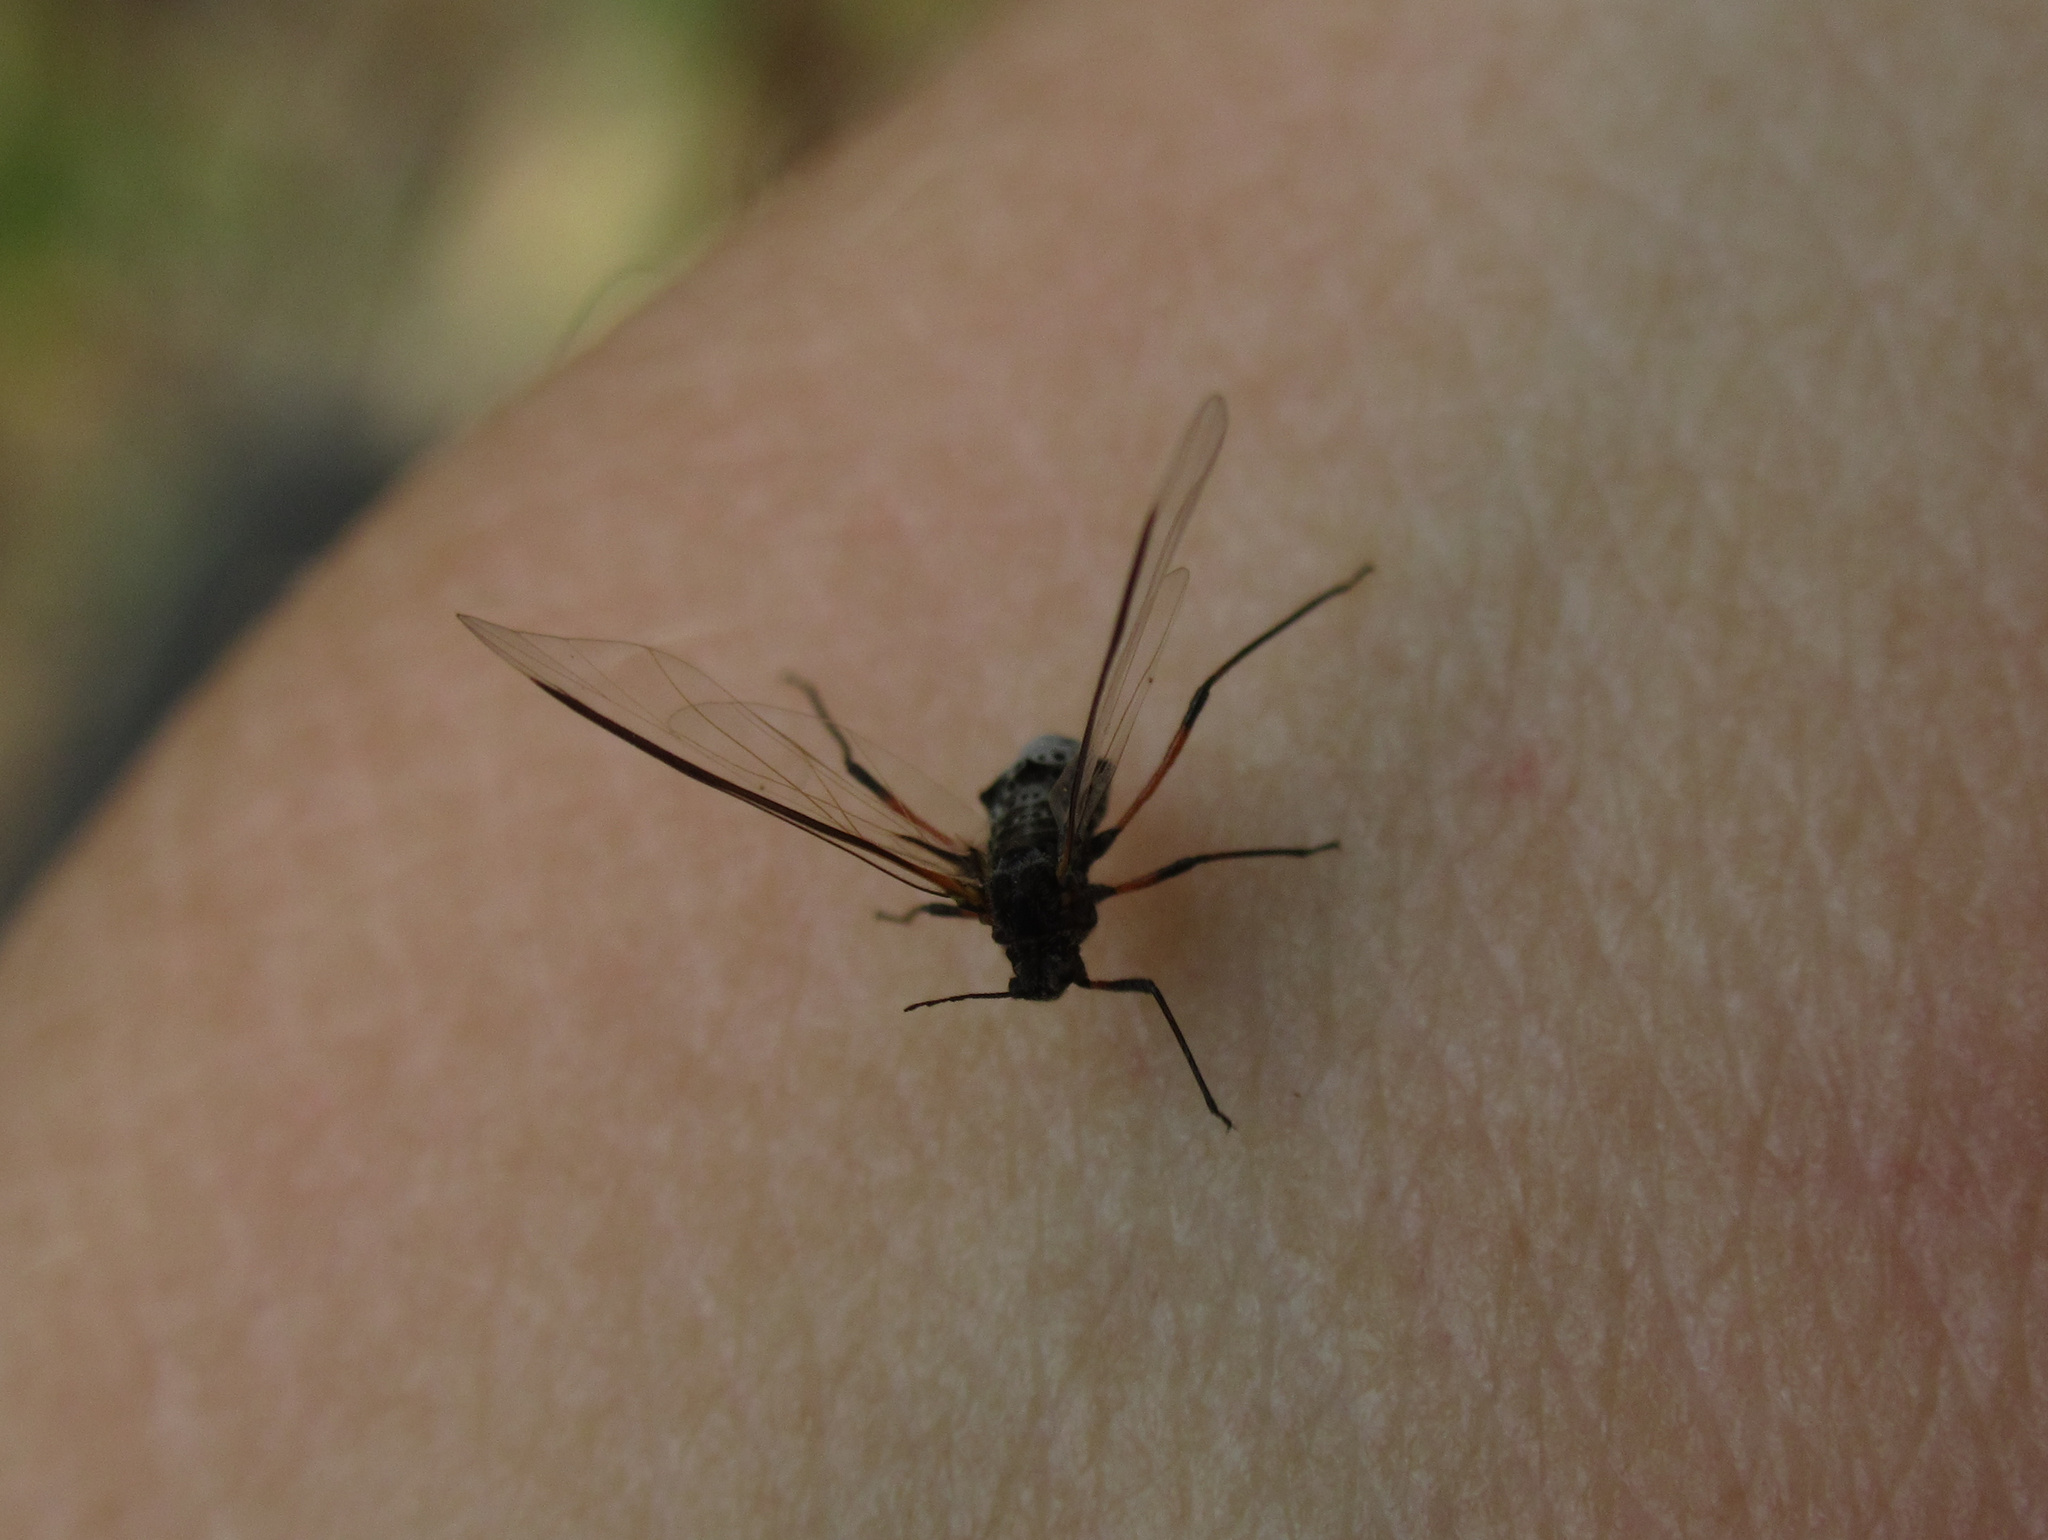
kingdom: Animalia
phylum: Arthropoda
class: Insecta
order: Hemiptera
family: Aphididae
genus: Tuberolachnus
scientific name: Tuberolachnus salignus
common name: Giant willow aphid
